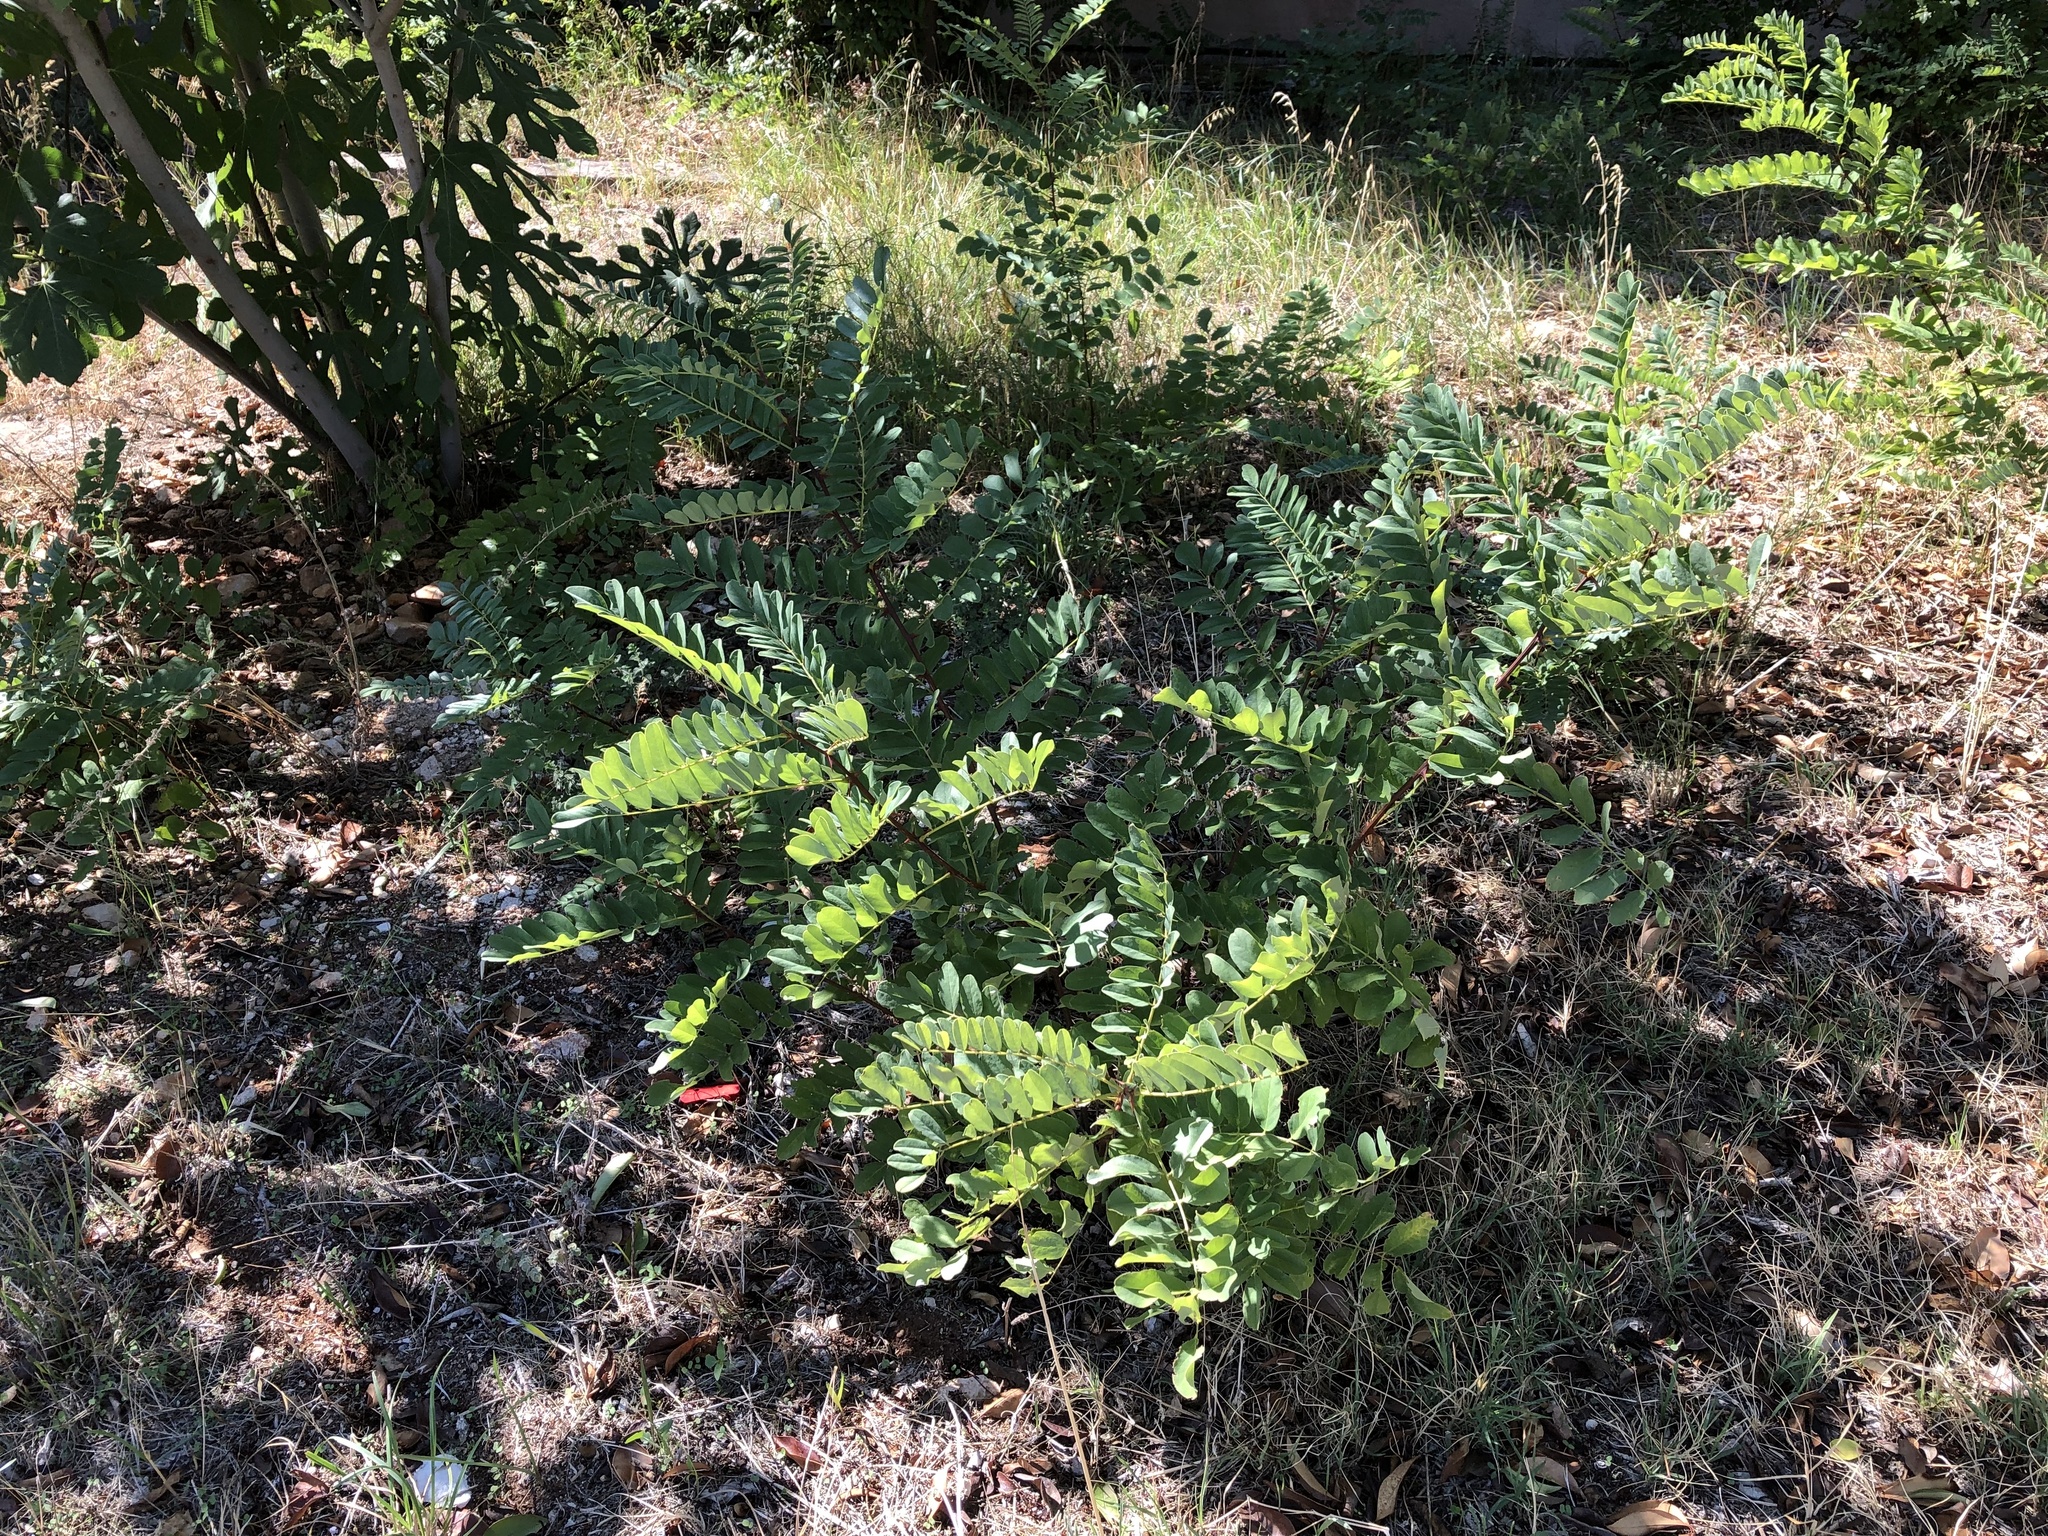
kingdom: Plantae
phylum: Tracheophyta
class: Magnoliopsida
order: Fabales
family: Fabaceae
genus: Robinia
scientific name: Robinia pseudoacacia
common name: Black locust
